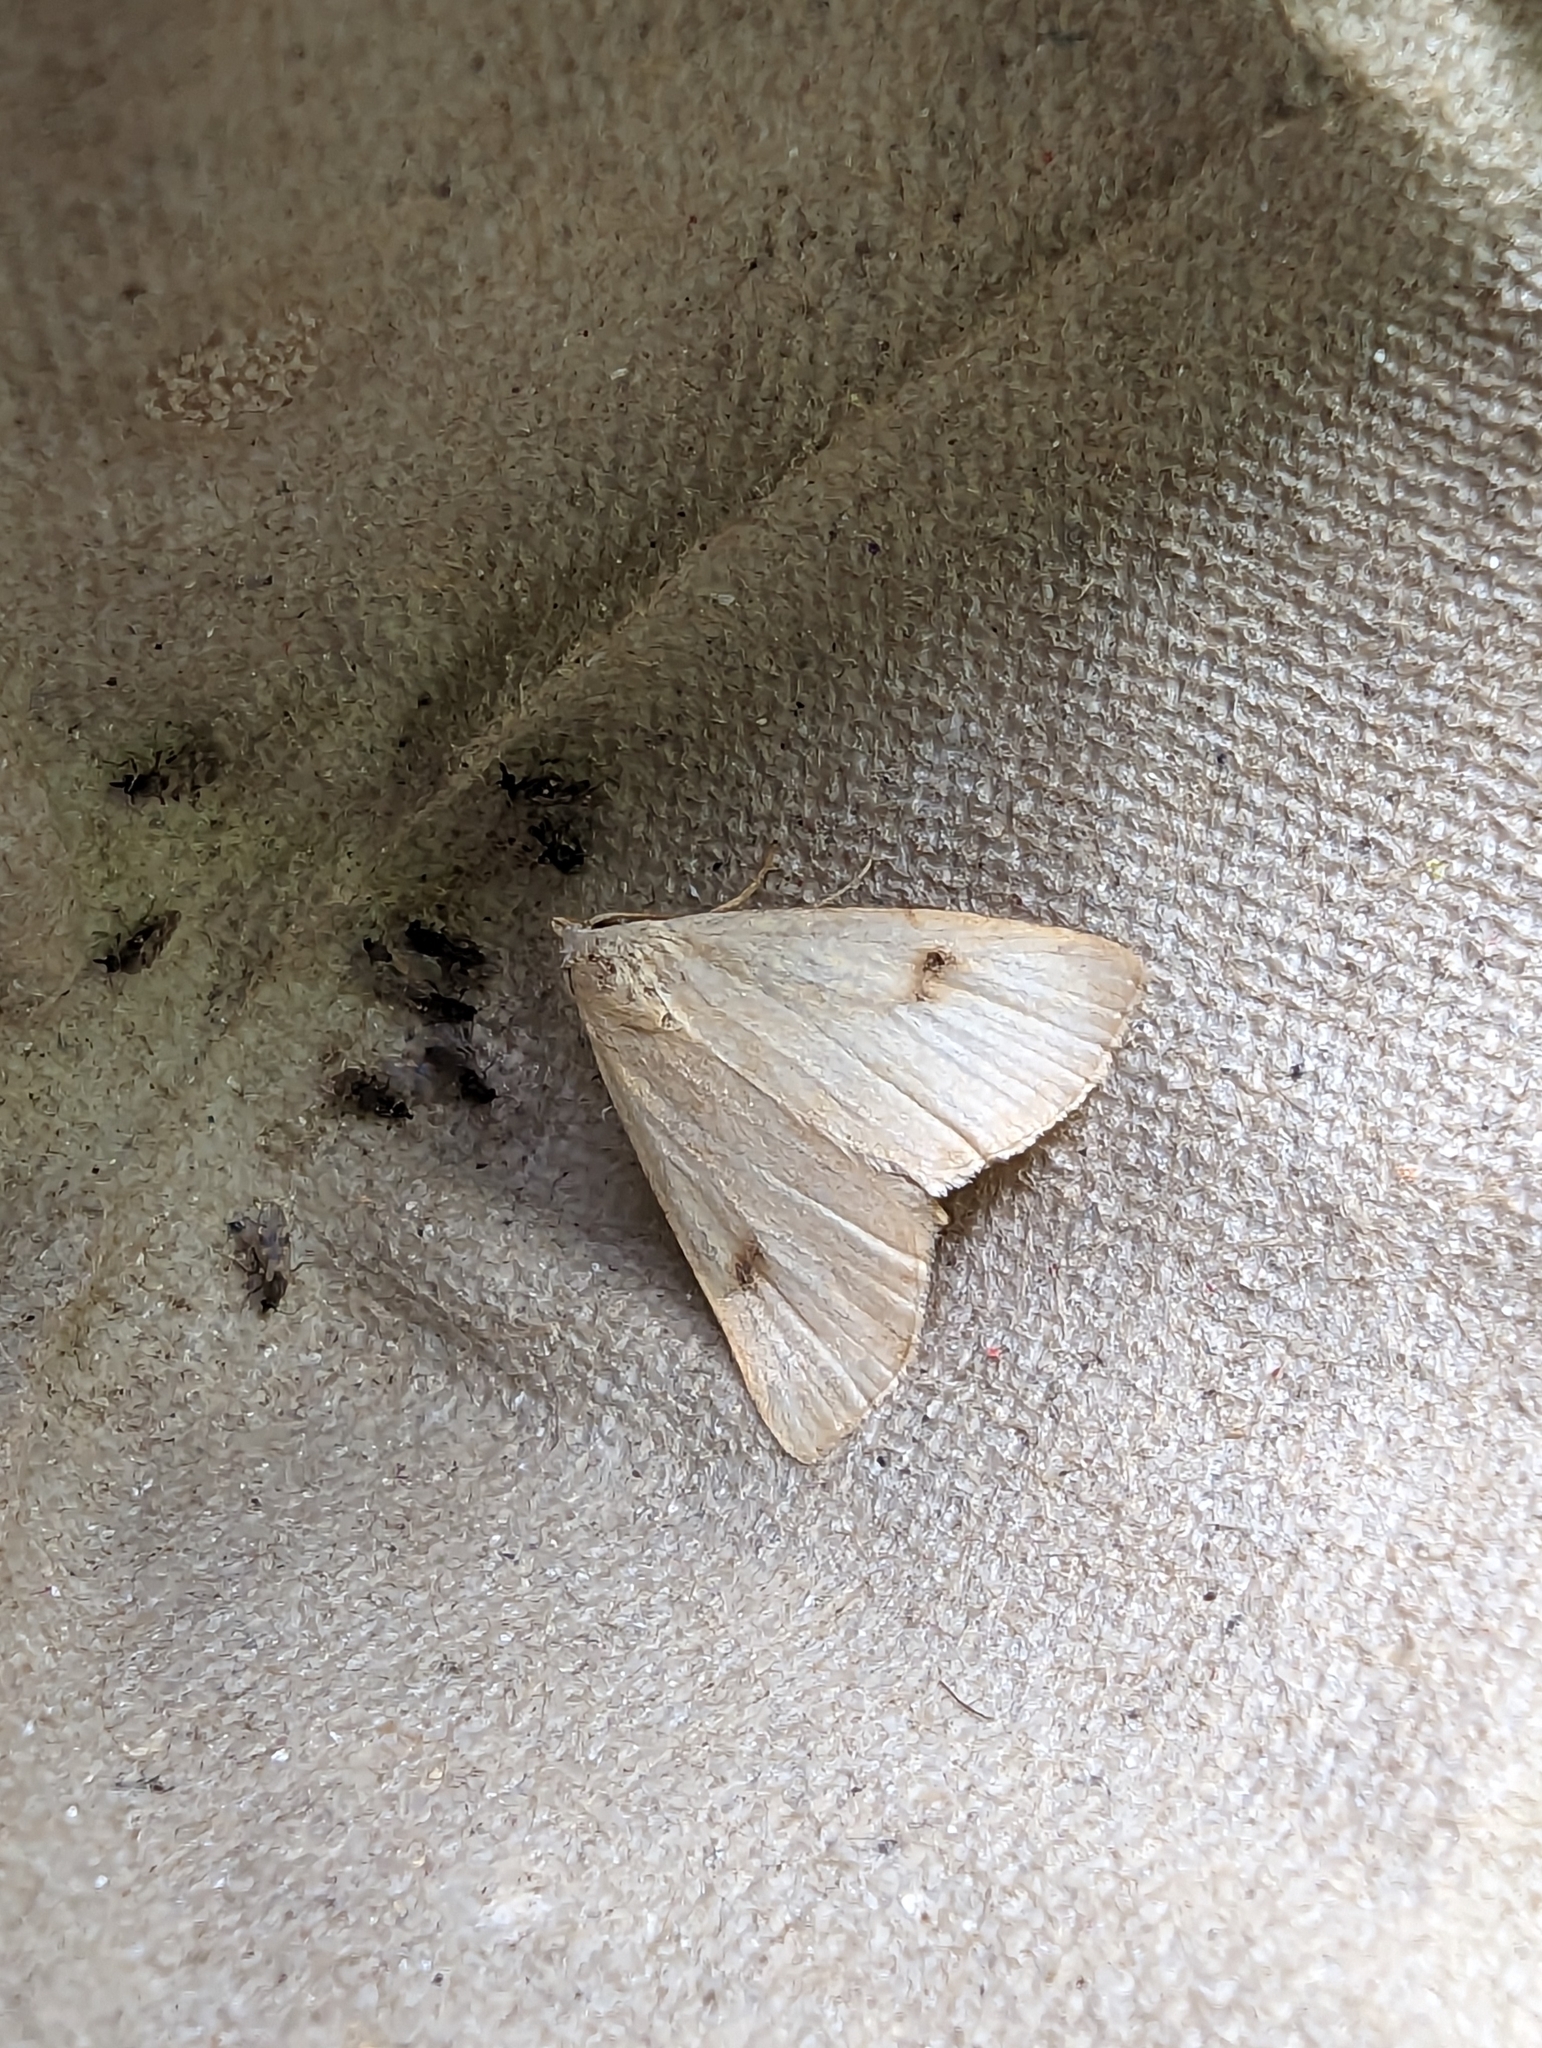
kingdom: Animalia
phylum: Arthropoda
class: Insecta
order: Lepidoptera
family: Erebidae
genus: Rivula
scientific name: Rivula sericealis
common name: Straw dot
